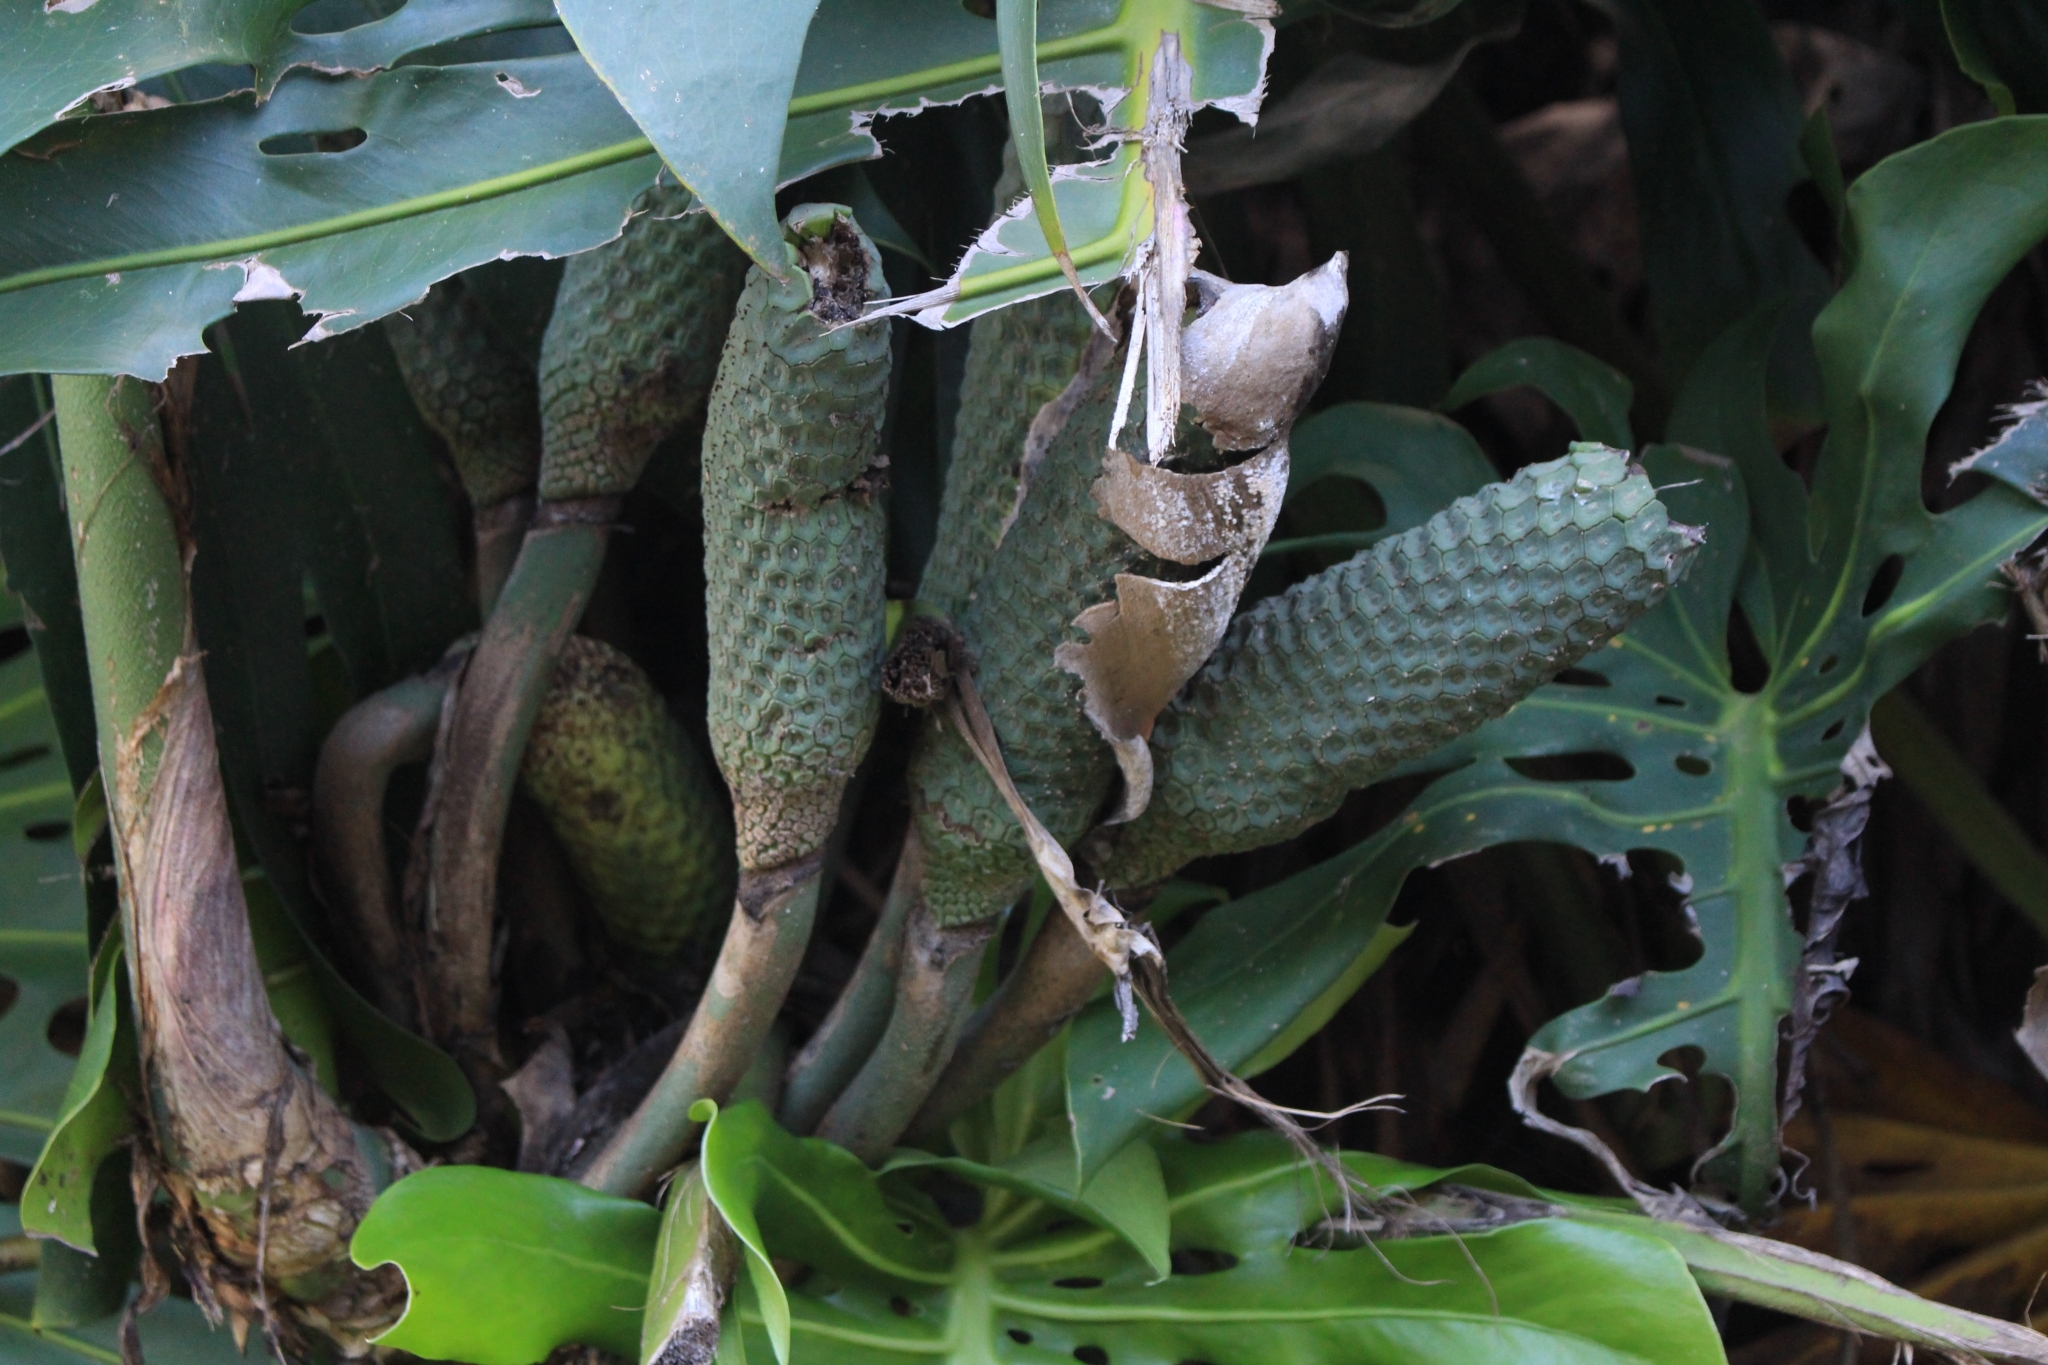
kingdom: Plantae
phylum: Tracheophyta
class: Liliopsida
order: Alismatales
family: Araceae
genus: Monstera
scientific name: Monstera deliciosa
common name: Cut-leaf-philodendron
